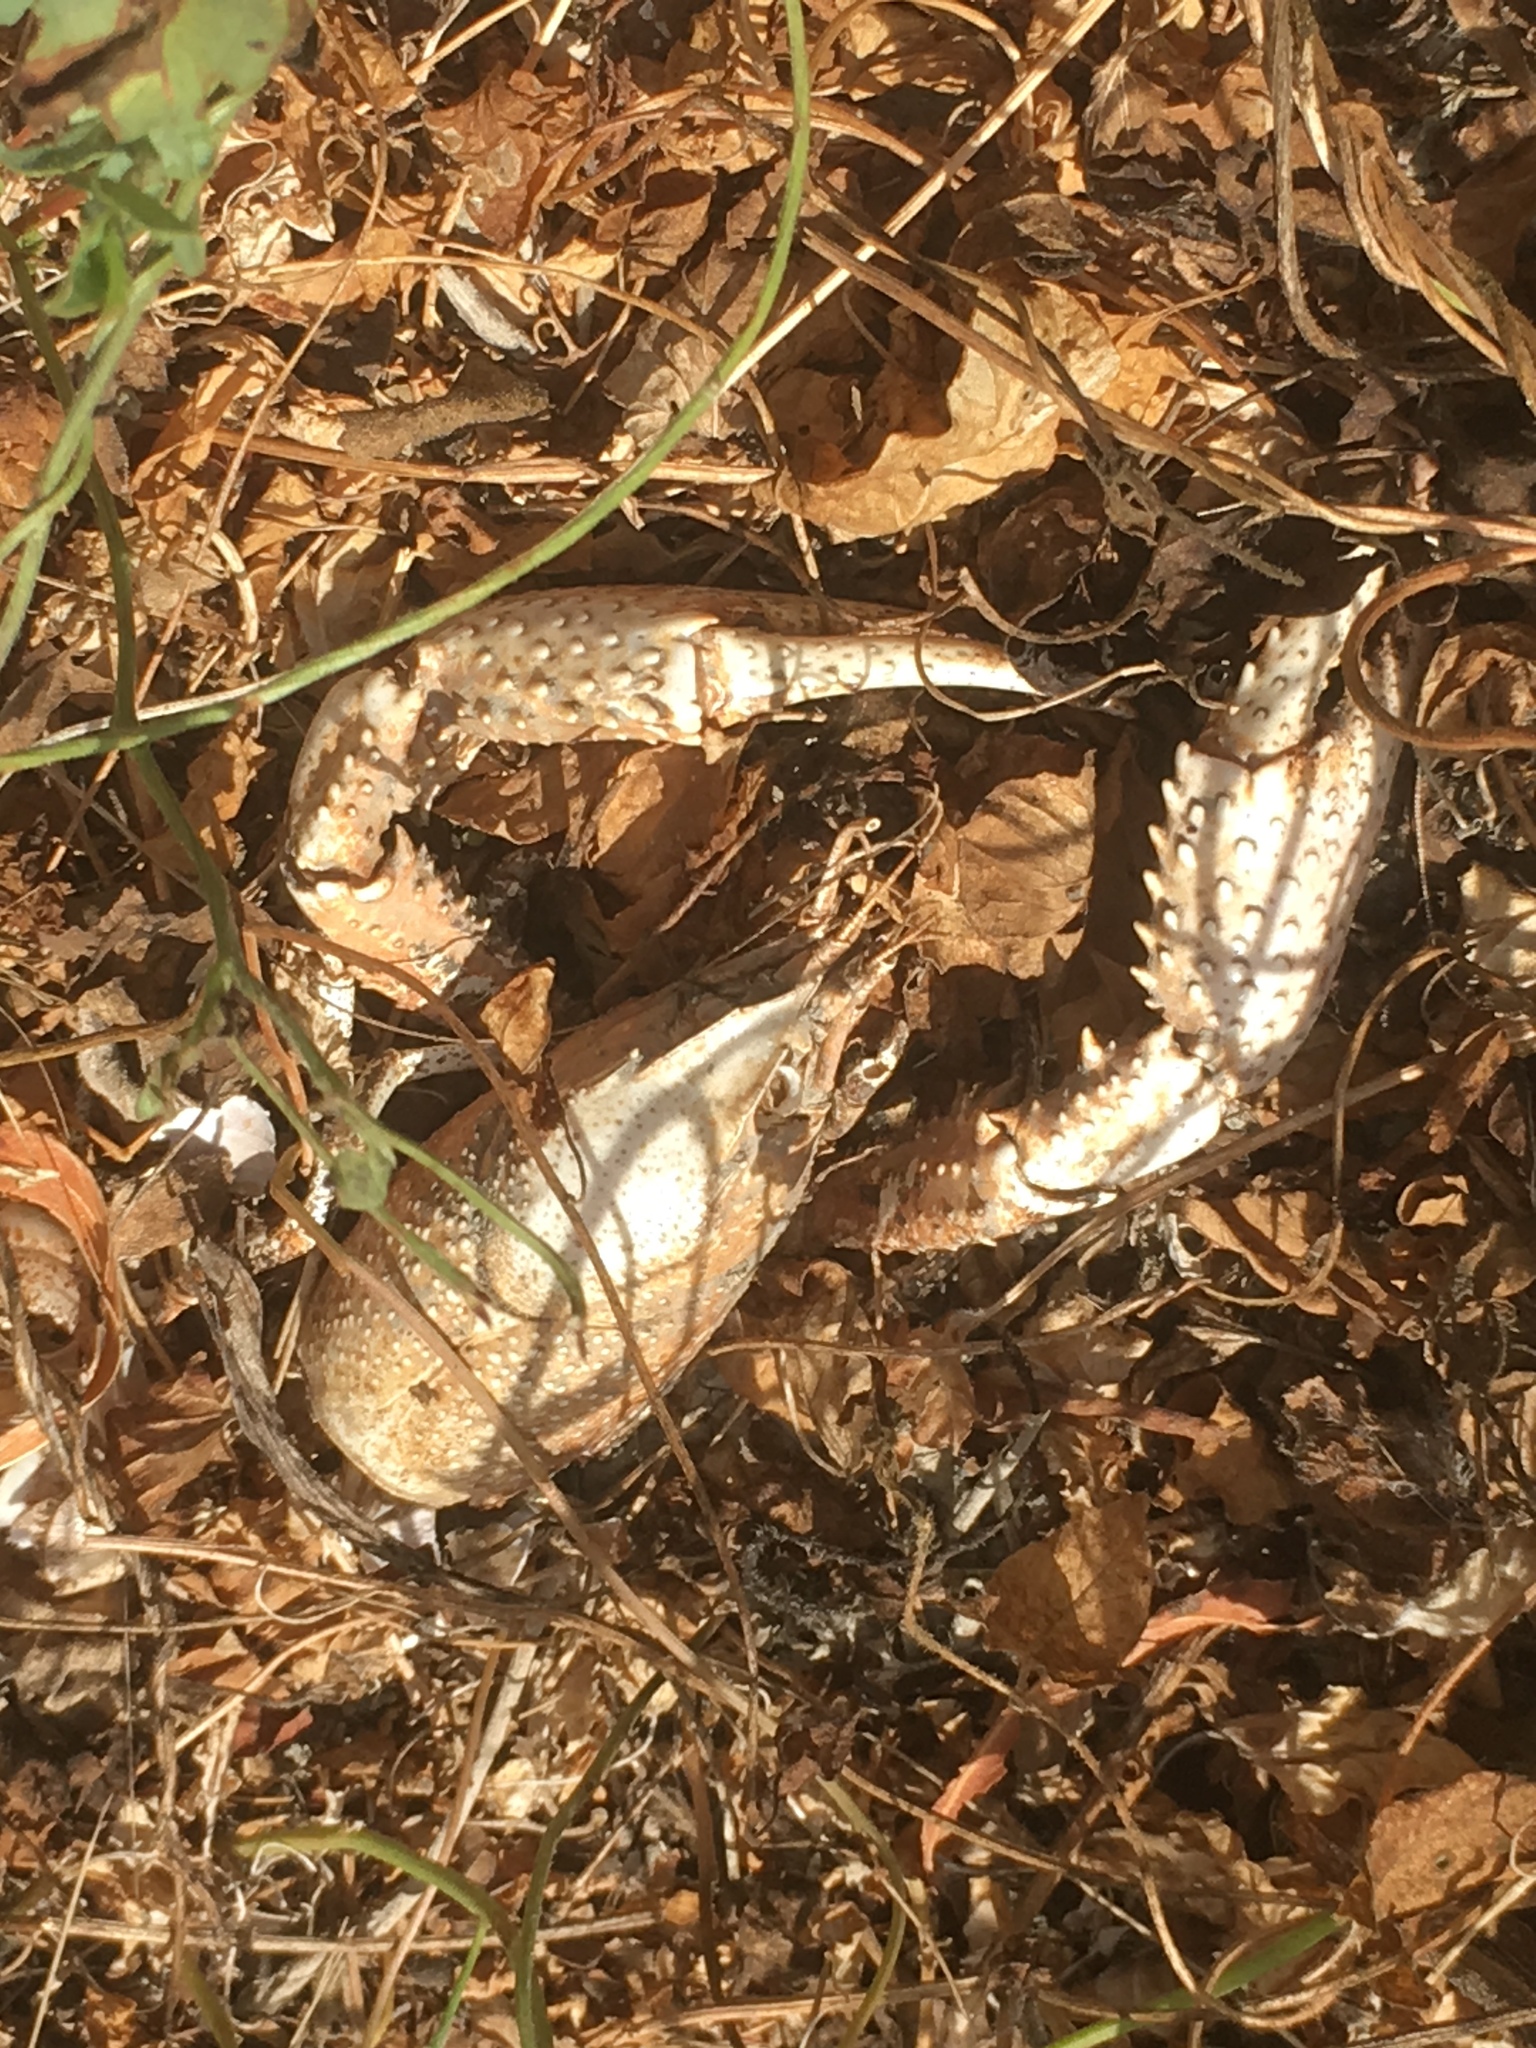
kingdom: Animalia
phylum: Arthropoda
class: Malacostraca
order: Decapoda
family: Cambaridae
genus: Procambarus
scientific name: Procambarus clarkii
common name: Red swamp crayfish
